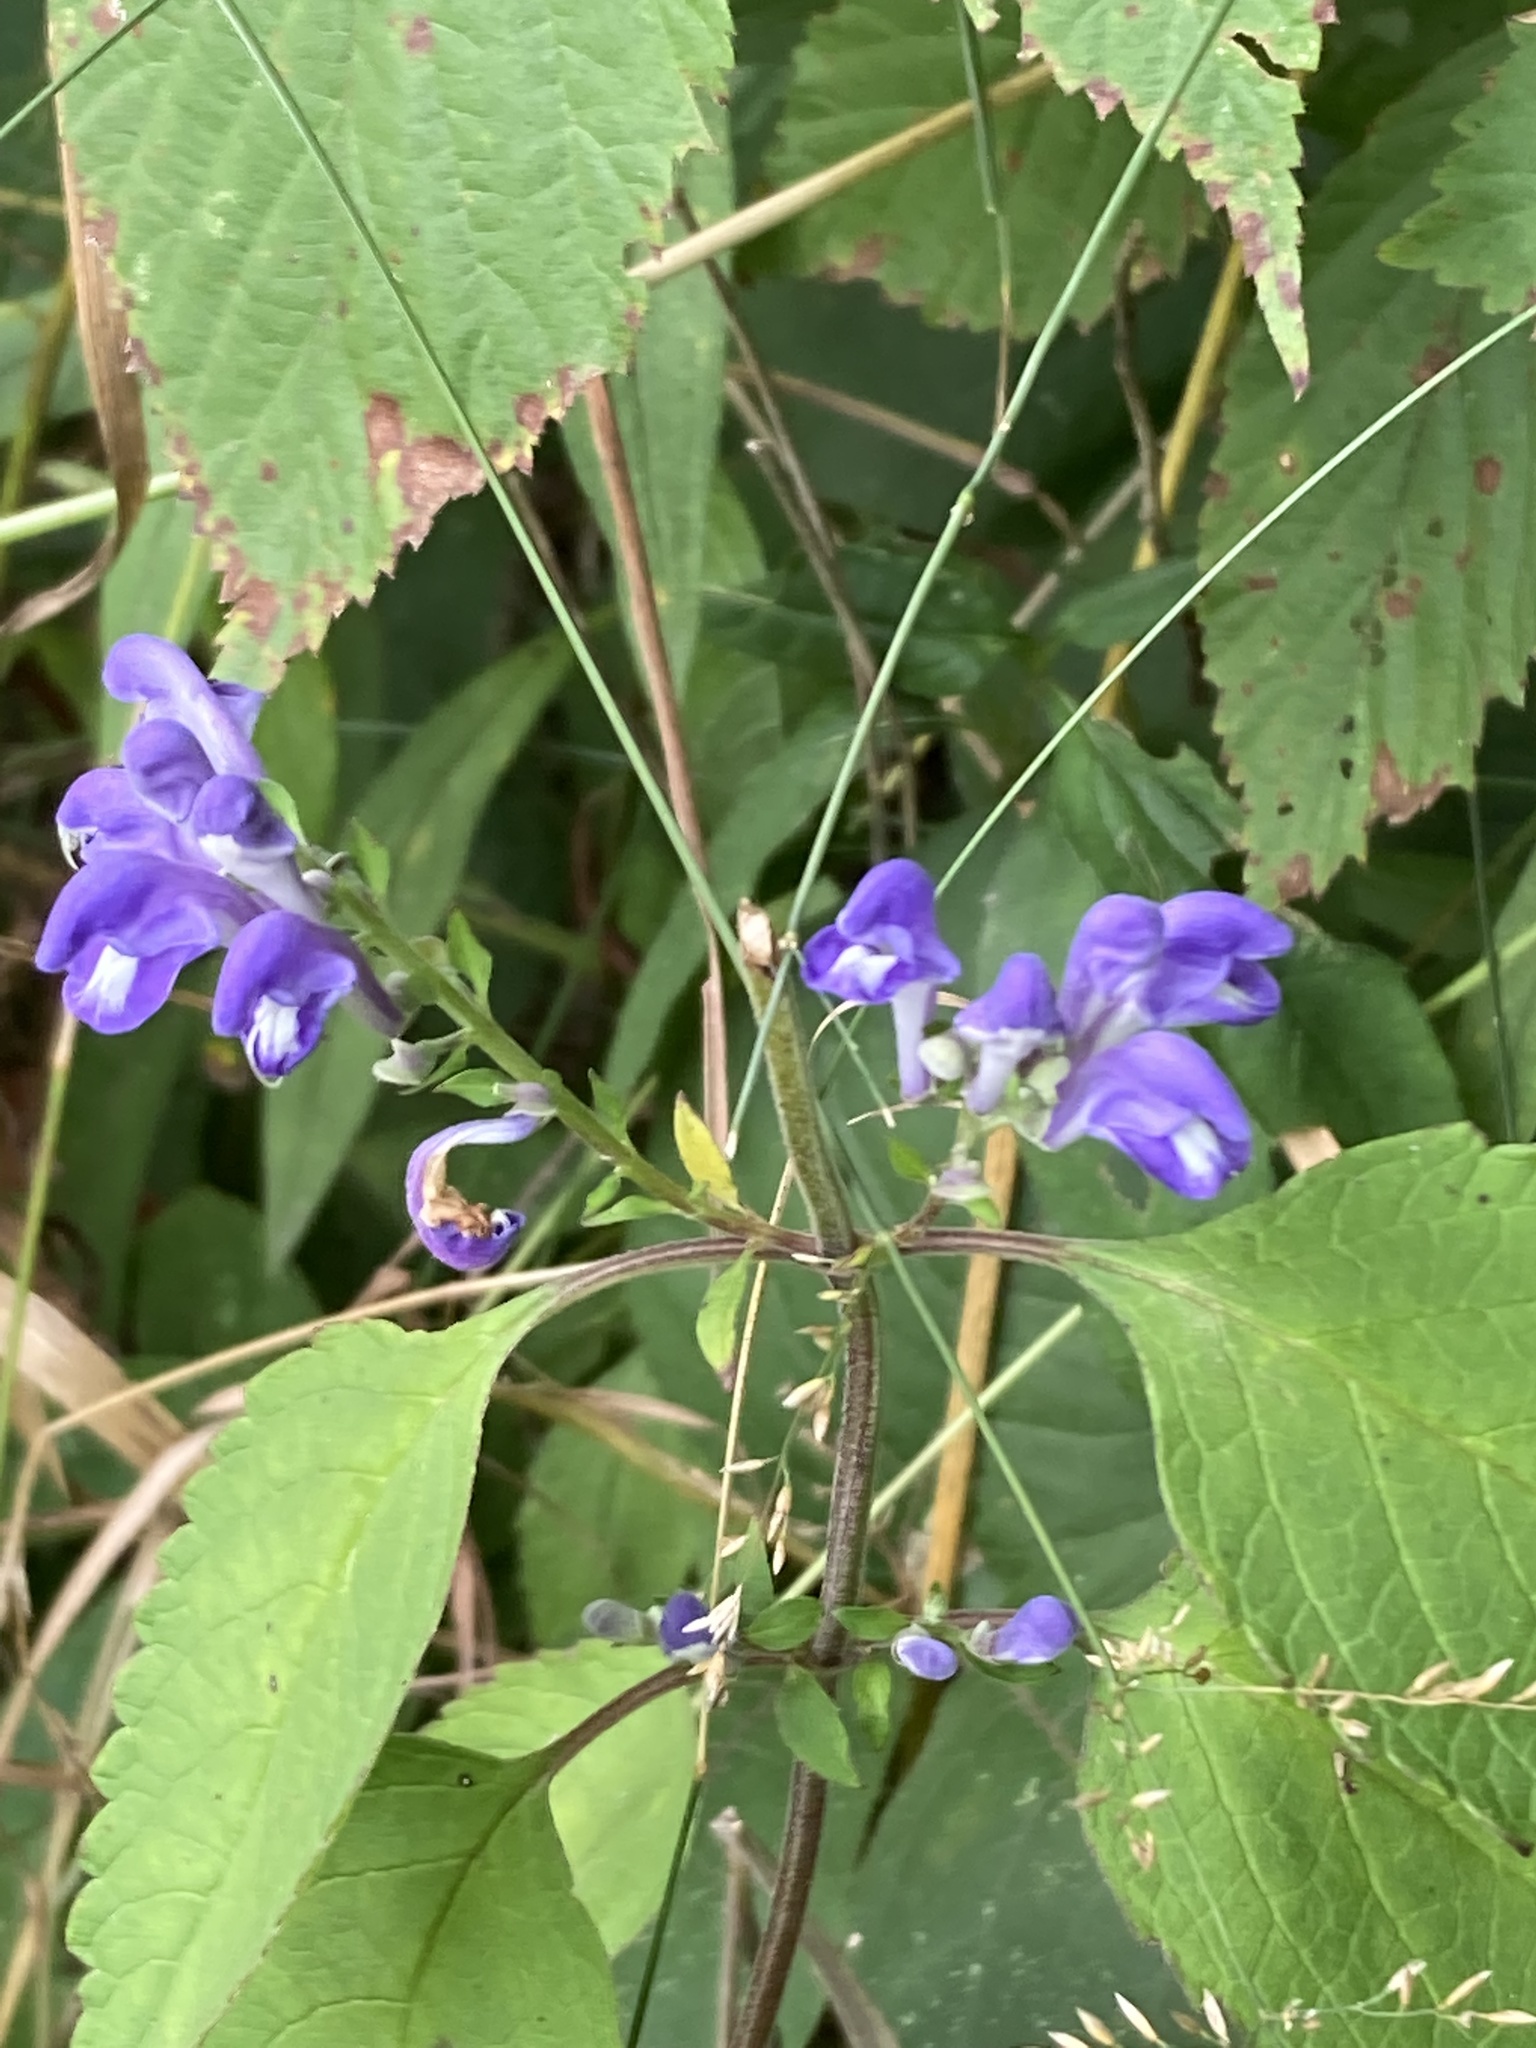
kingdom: Plantae
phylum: Tracheophyta
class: Magnoliopsida
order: Lamiales
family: Lamiaceae
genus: Scutellaria
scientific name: Scutellaria incana
